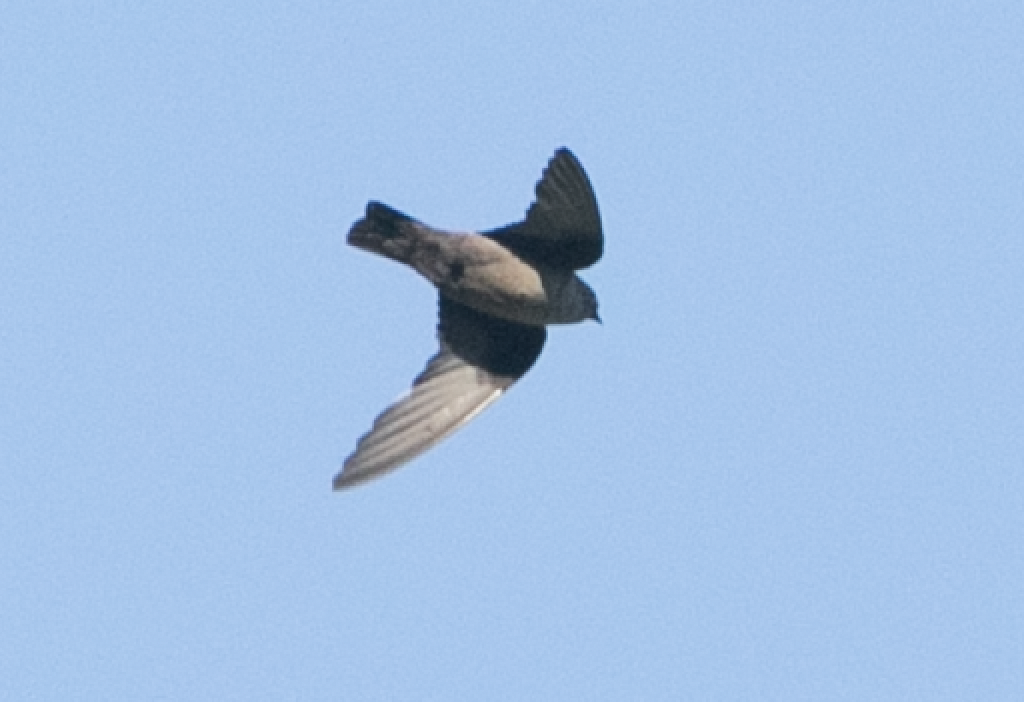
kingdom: Animalia
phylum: Chordata
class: Aves
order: Passeriformes
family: Hirundinidae
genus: Ptyonoprogne
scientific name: Ptyonoprogne rupestris
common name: Eurasian crag martin
